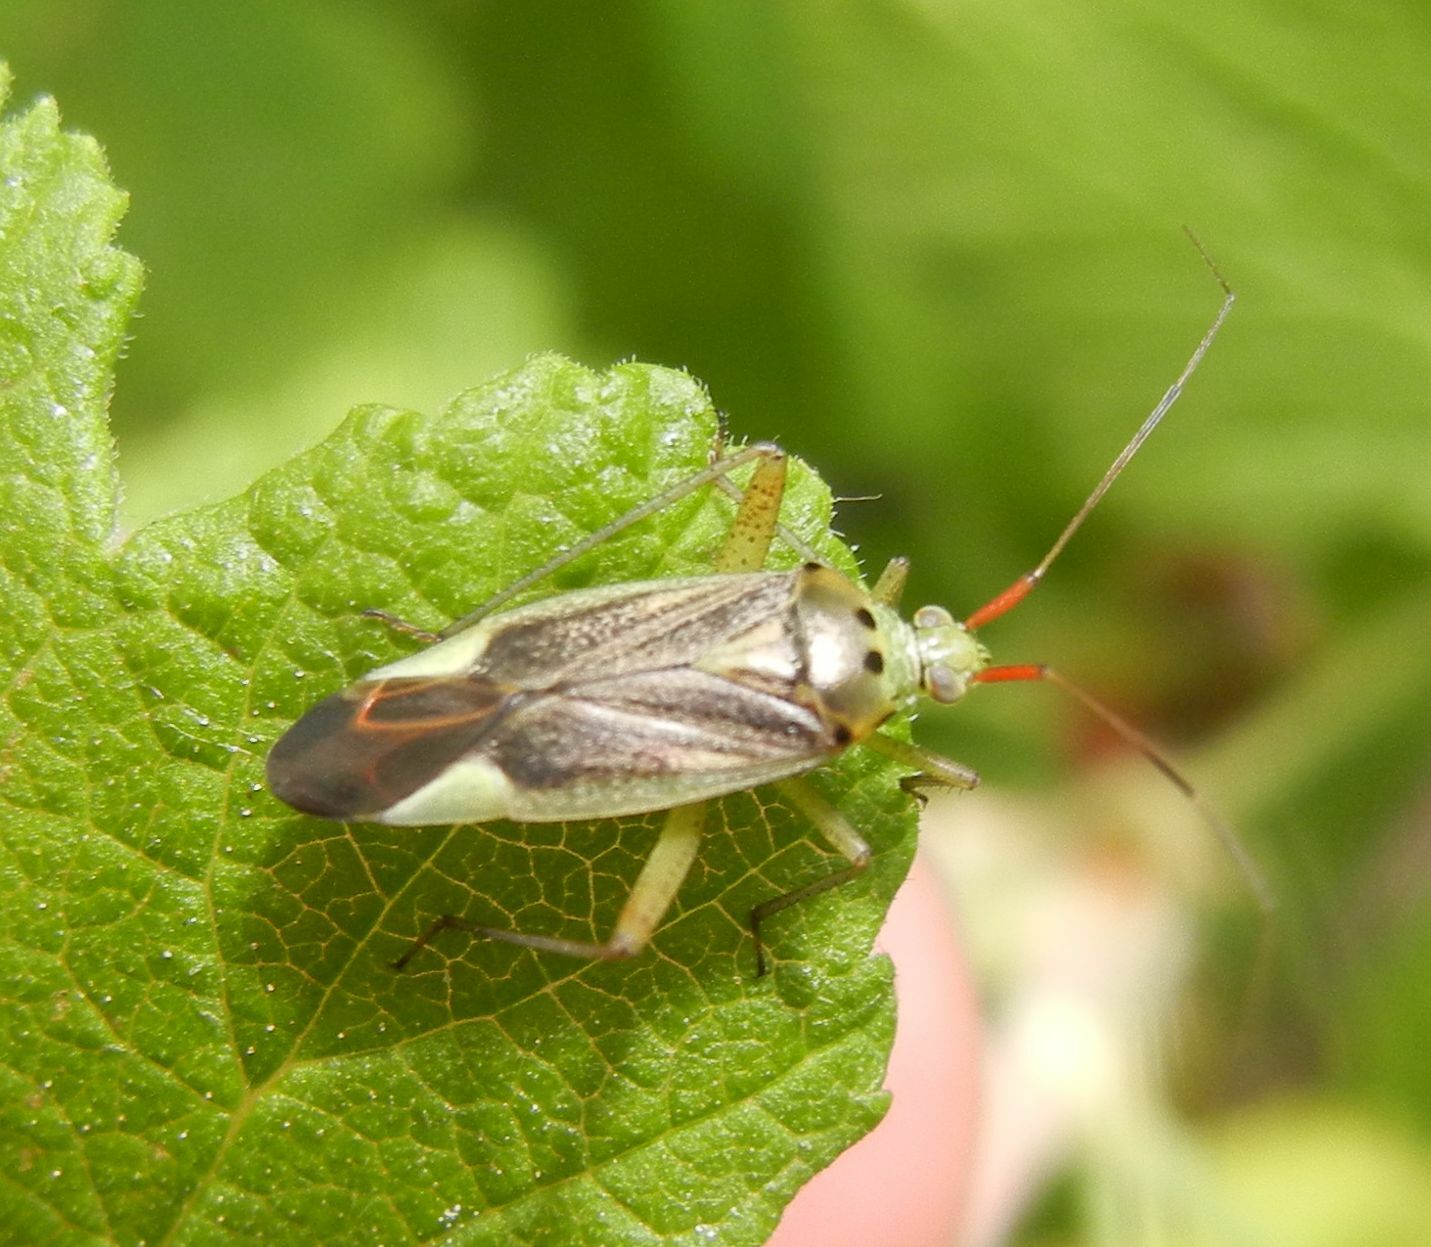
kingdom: Animalia
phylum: Arthropoda
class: Insecta
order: Hemiptera
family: Miridae
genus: Closterotomus
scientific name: Closterotomus trivialis
